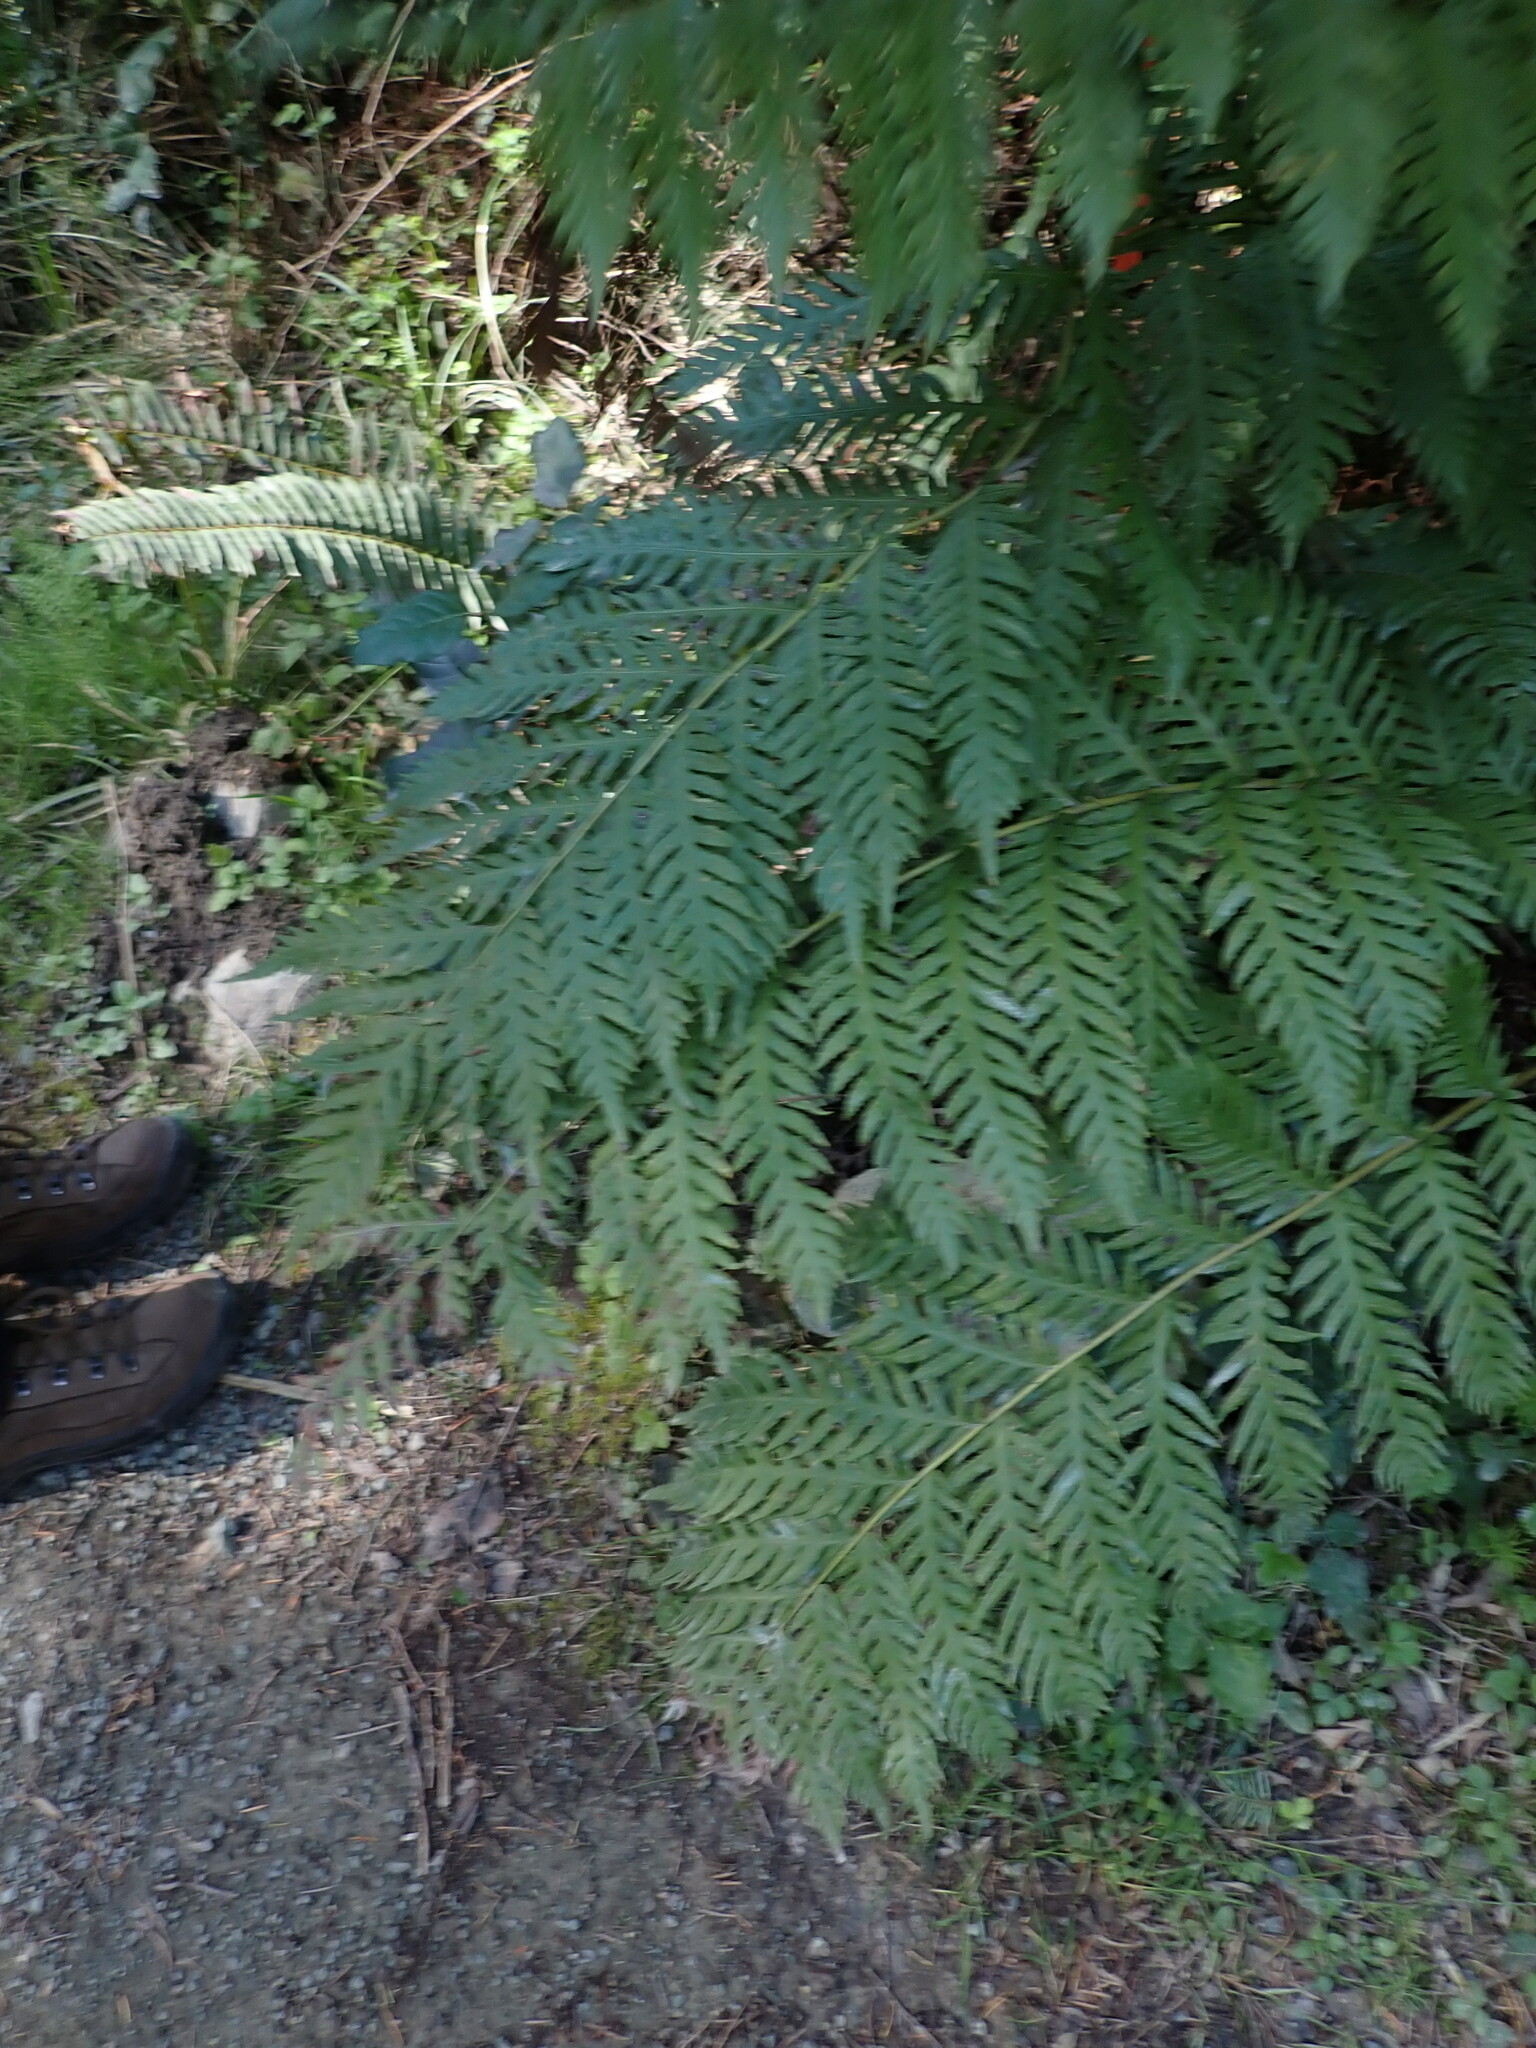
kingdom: Plantae
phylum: Tracheophyta
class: Polypodiopsida
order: Polypodiales
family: Blechnaceae
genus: Woodwardia
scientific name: Woodwardia fimbriata
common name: Giant chain fern
